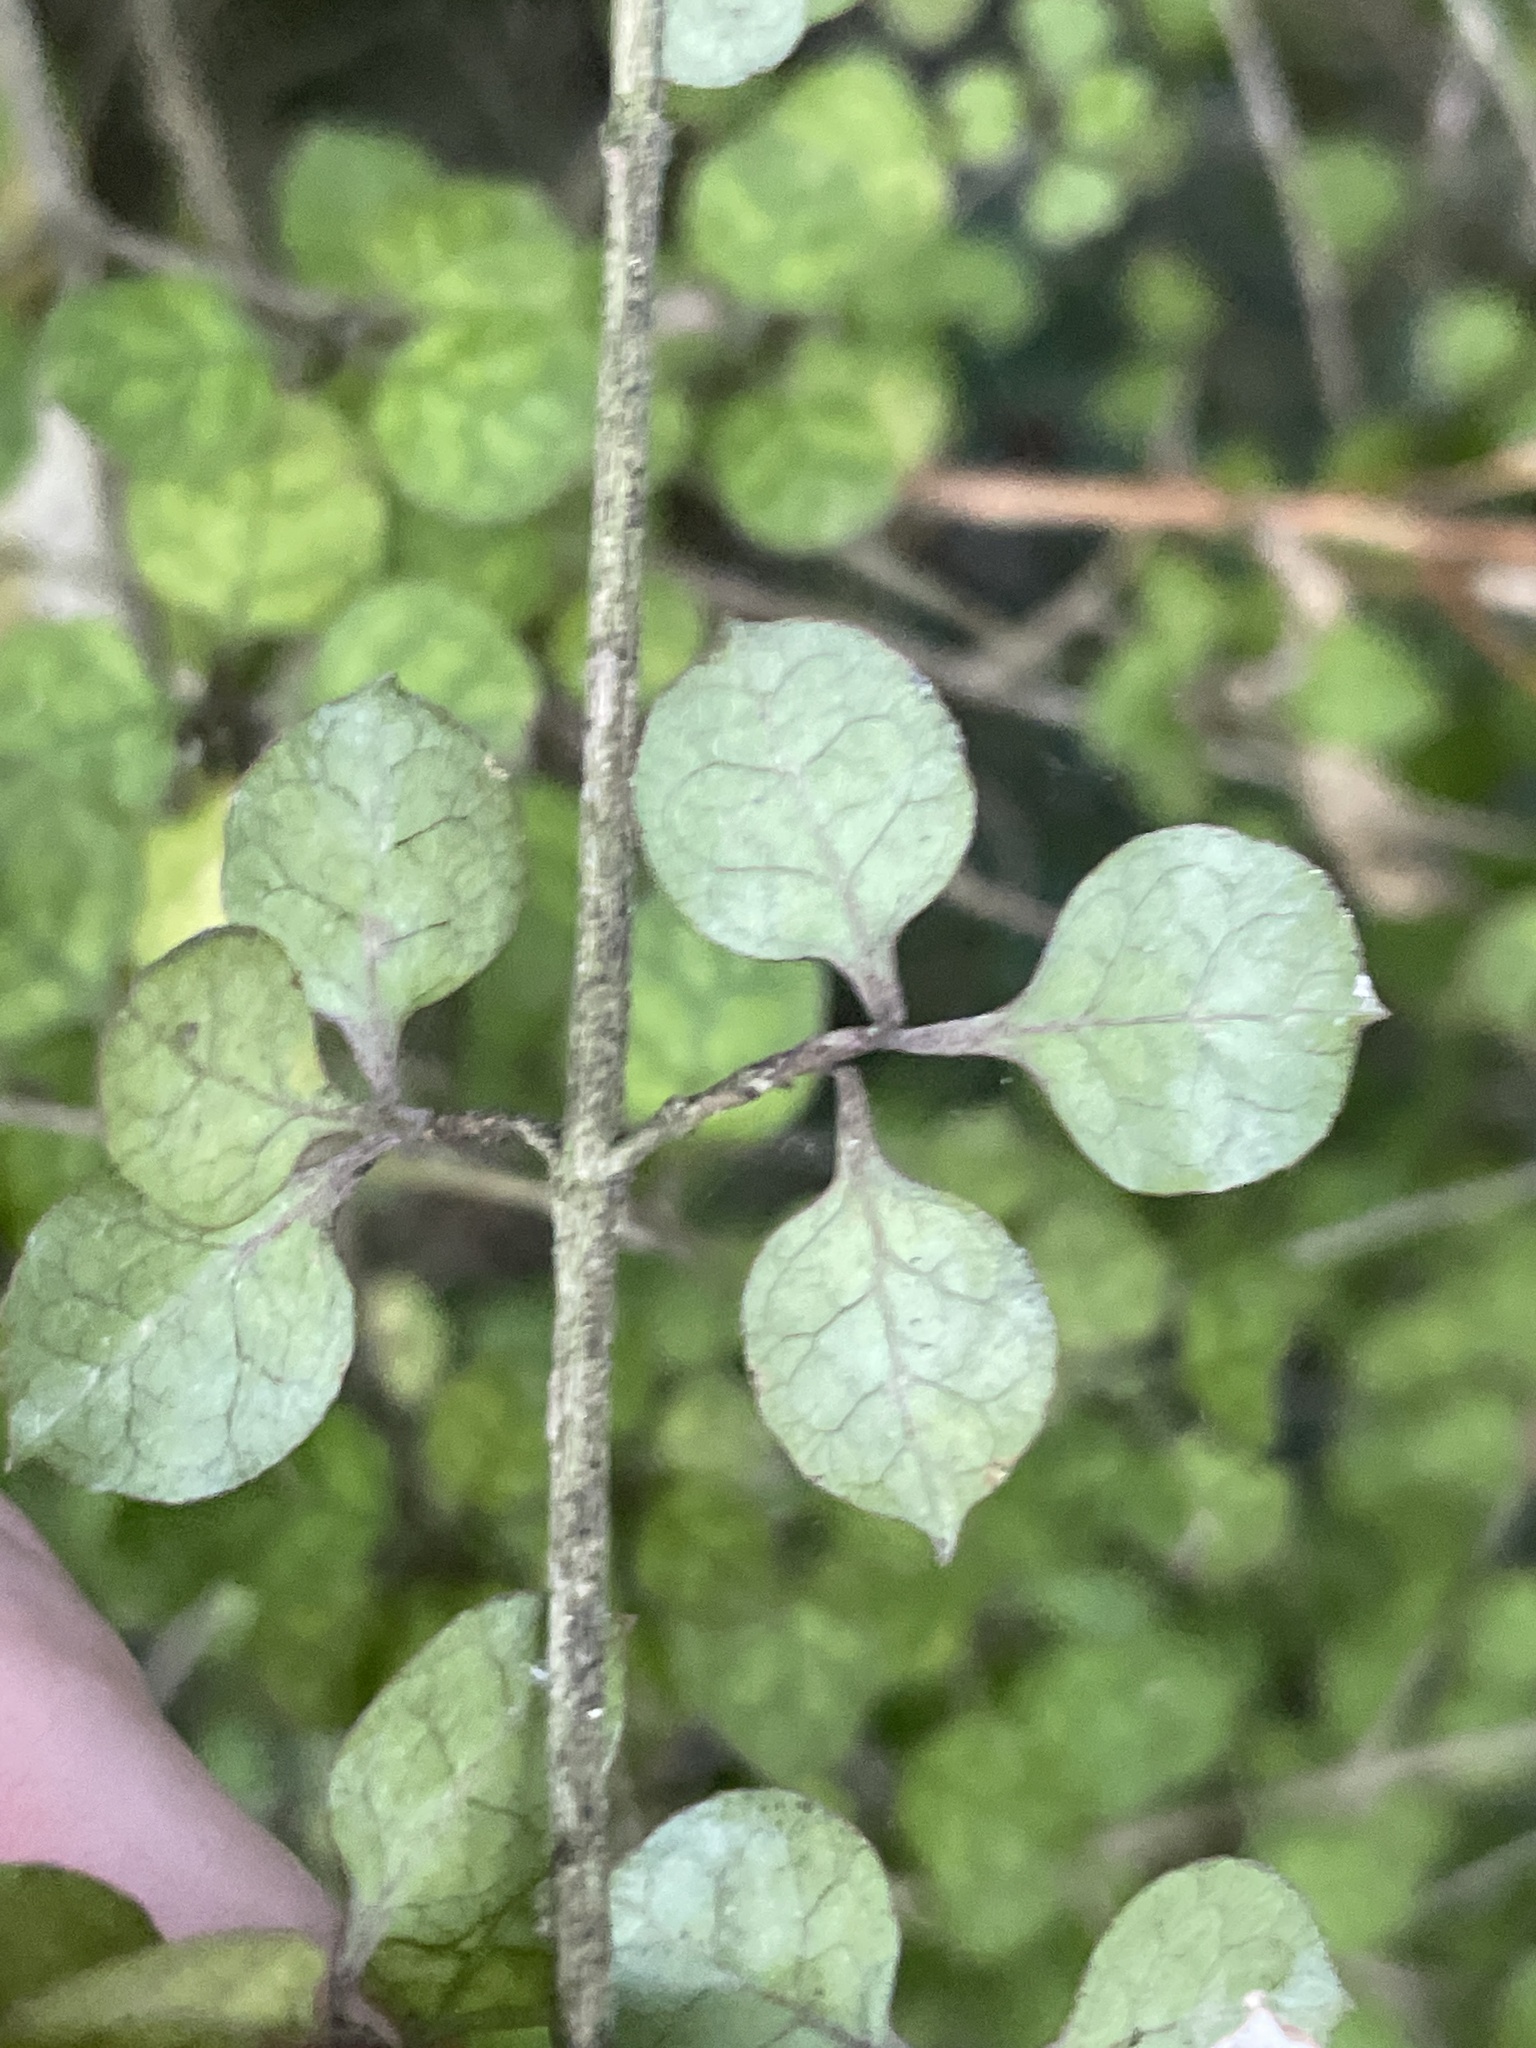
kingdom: Plantae
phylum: Tracheophyta
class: Magnoliopsida
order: Gentianales
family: Rubiaceae
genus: Coprosma
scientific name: Coprosma areolata
